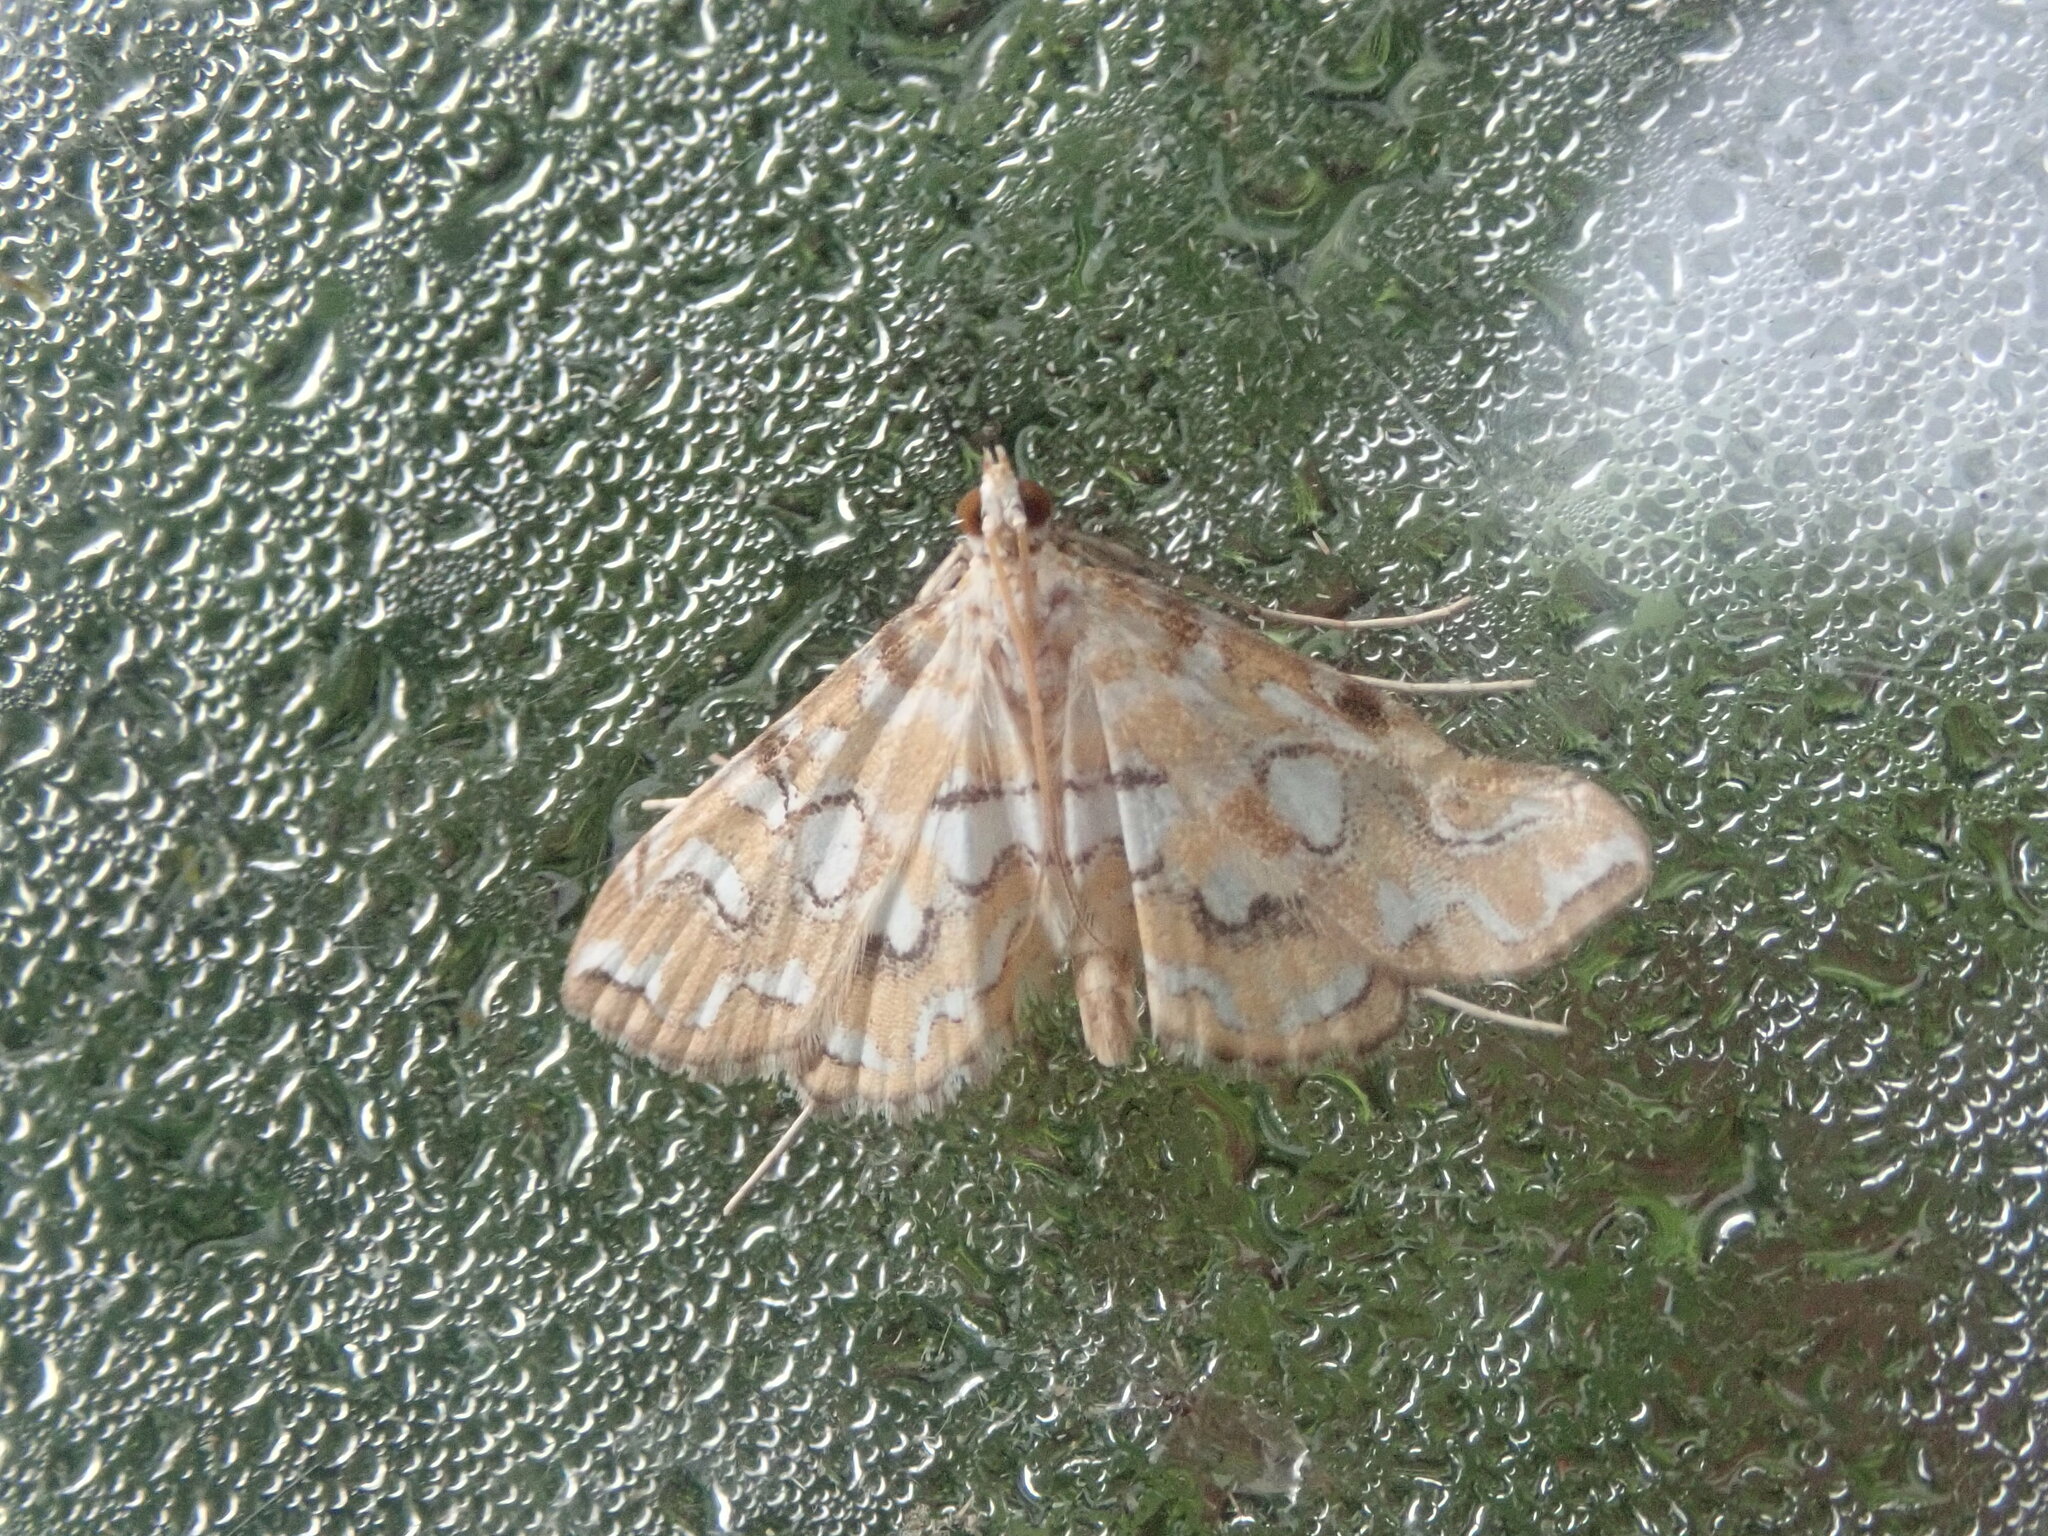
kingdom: Animalia
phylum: Arthropoda
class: Insecta
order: Lepidoptera
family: Crambidae
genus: Elophila
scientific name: Elophila icciusalis
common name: Pondside pyralid moth
